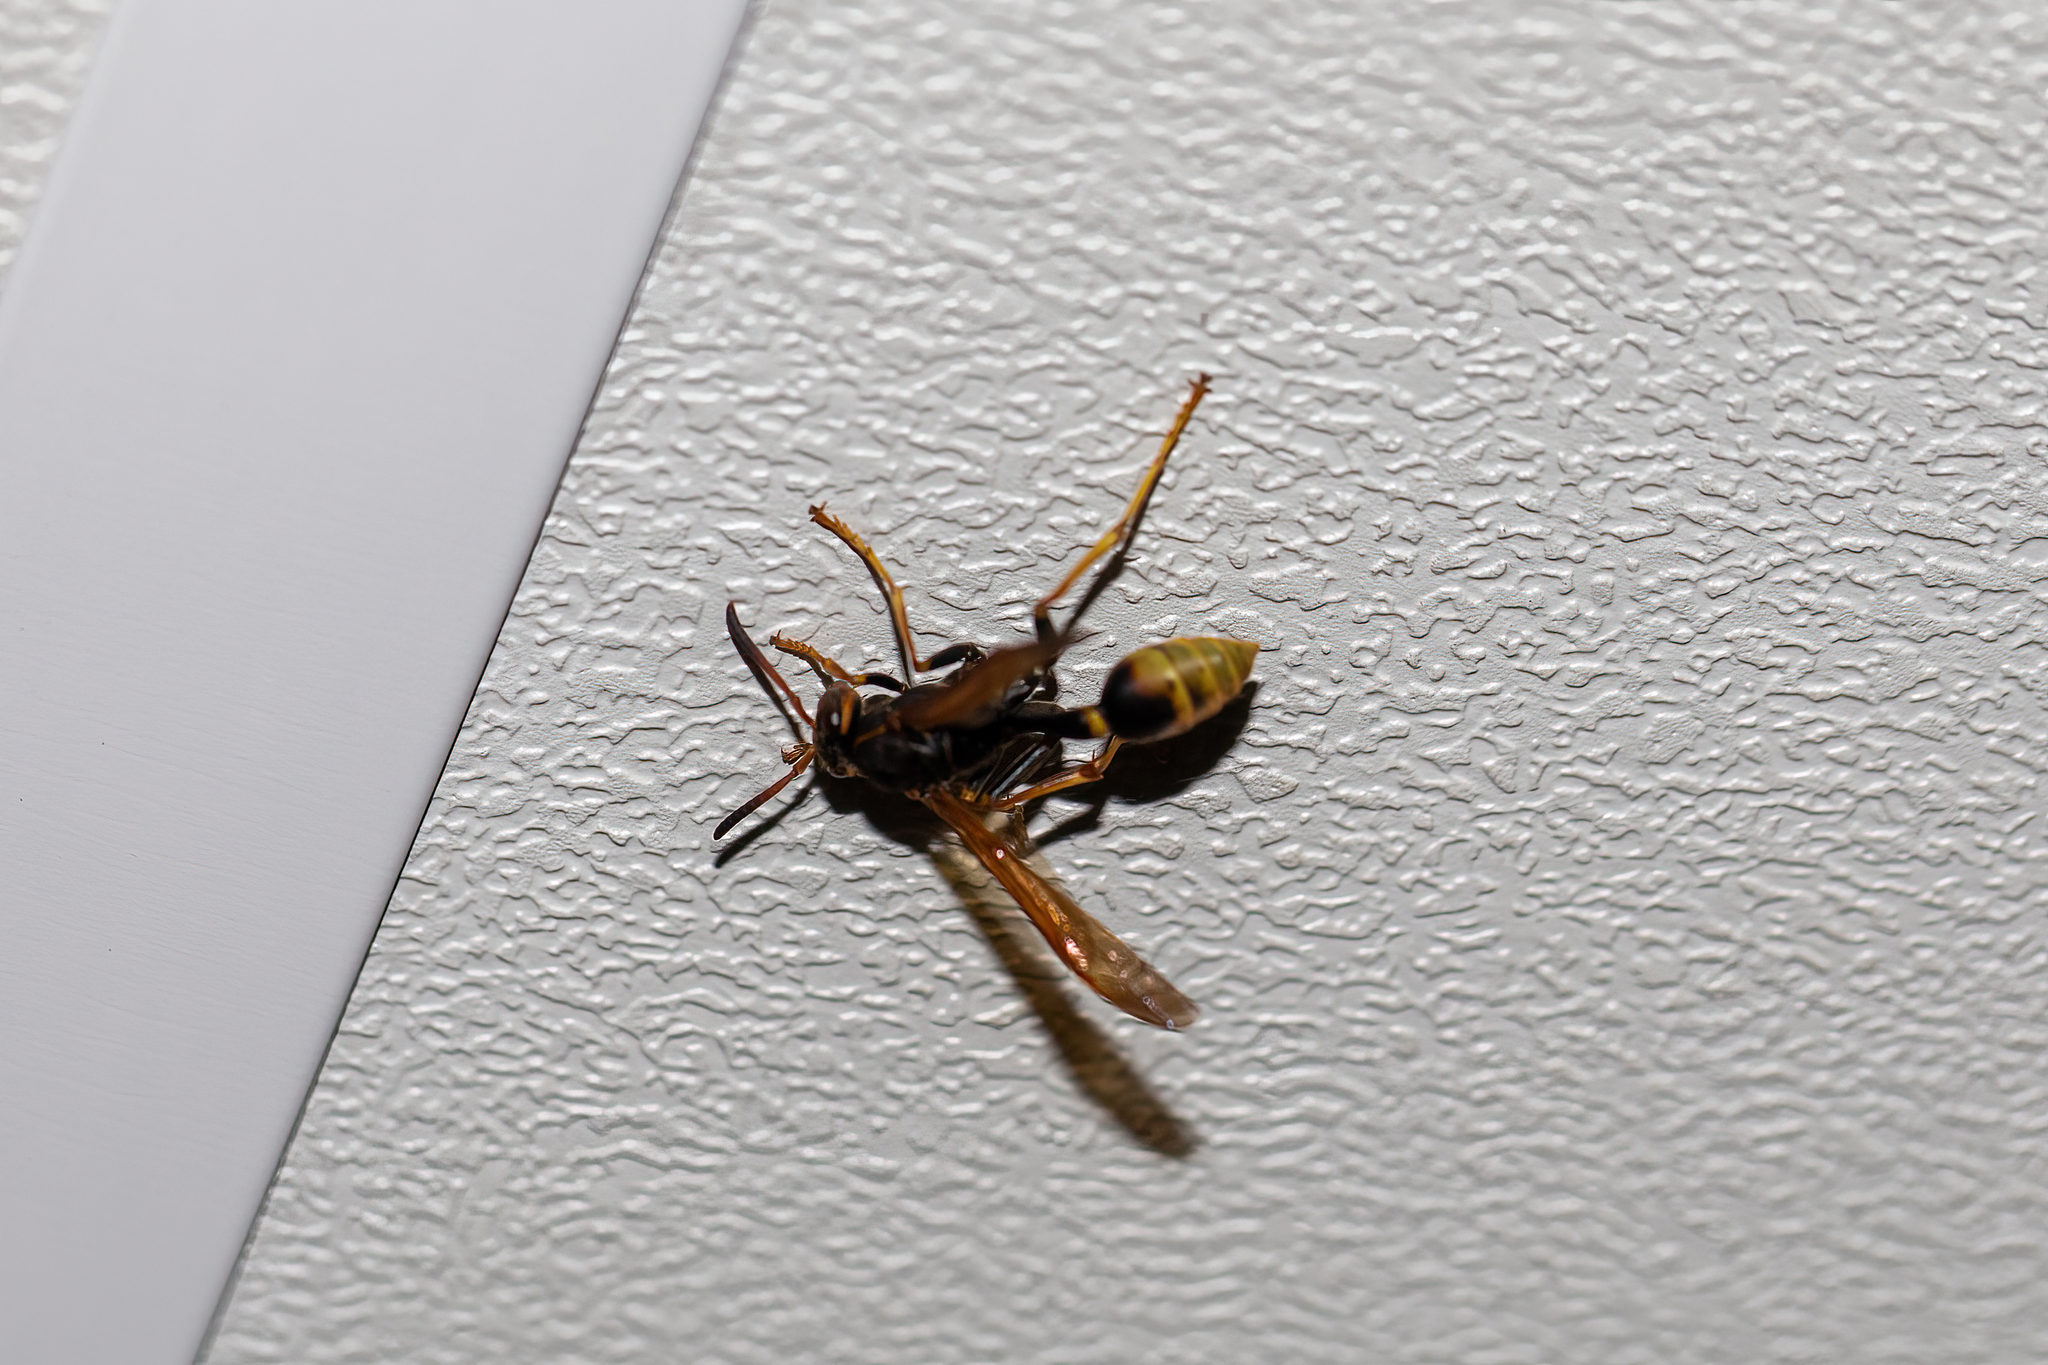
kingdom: Animalia
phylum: Arthropoda
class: Insecta
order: Hymenoptera
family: Vespidae
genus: Mischocyttarus
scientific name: Mischocyttarus flavitarsis
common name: Wasp
